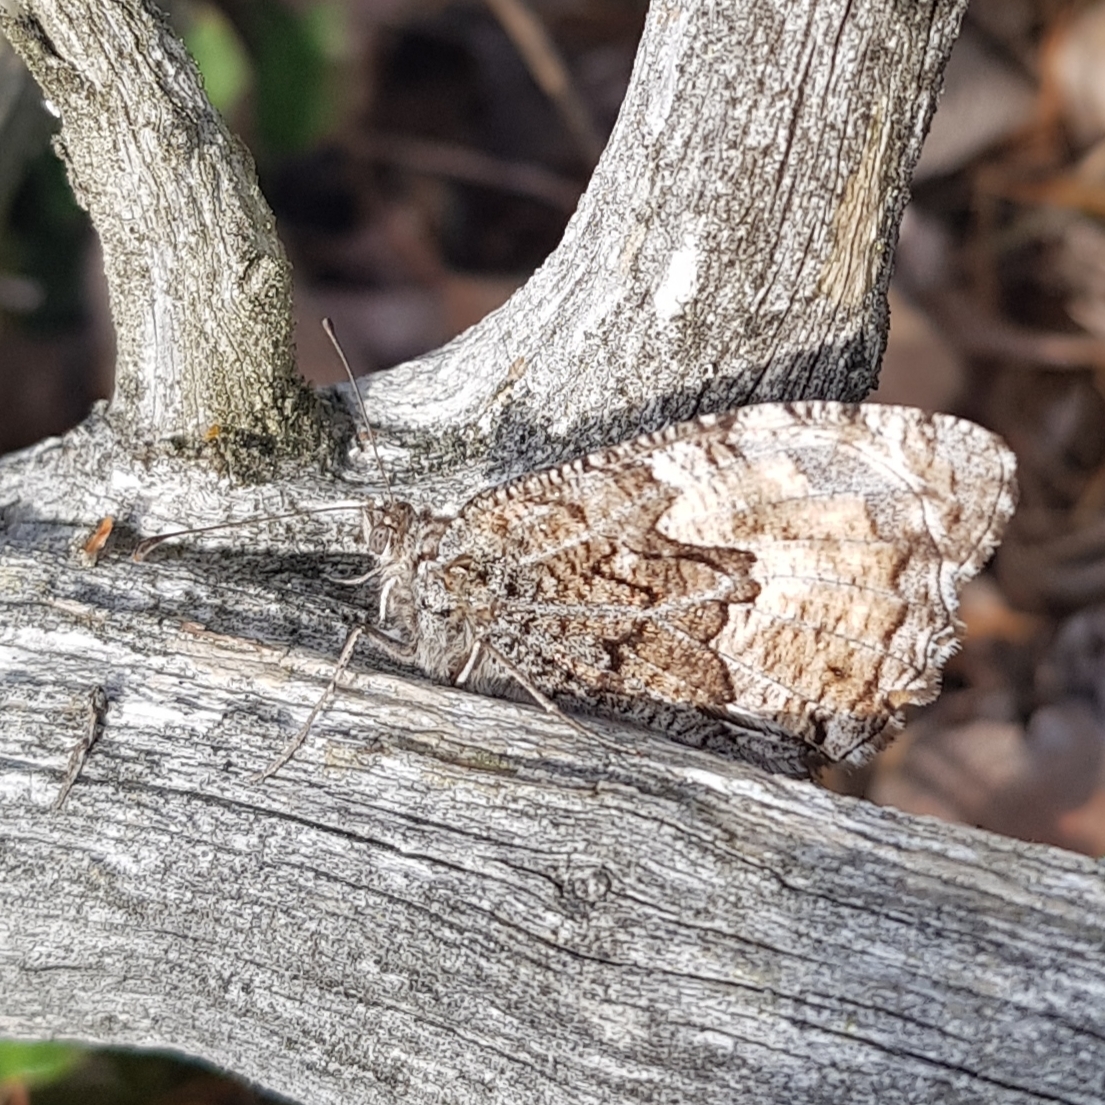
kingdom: Animalia
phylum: Arthropoda
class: Insecta
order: Lepidoptera
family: Nymphalidae
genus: Hipparchia
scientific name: Hipparchia semele
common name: Grayling
